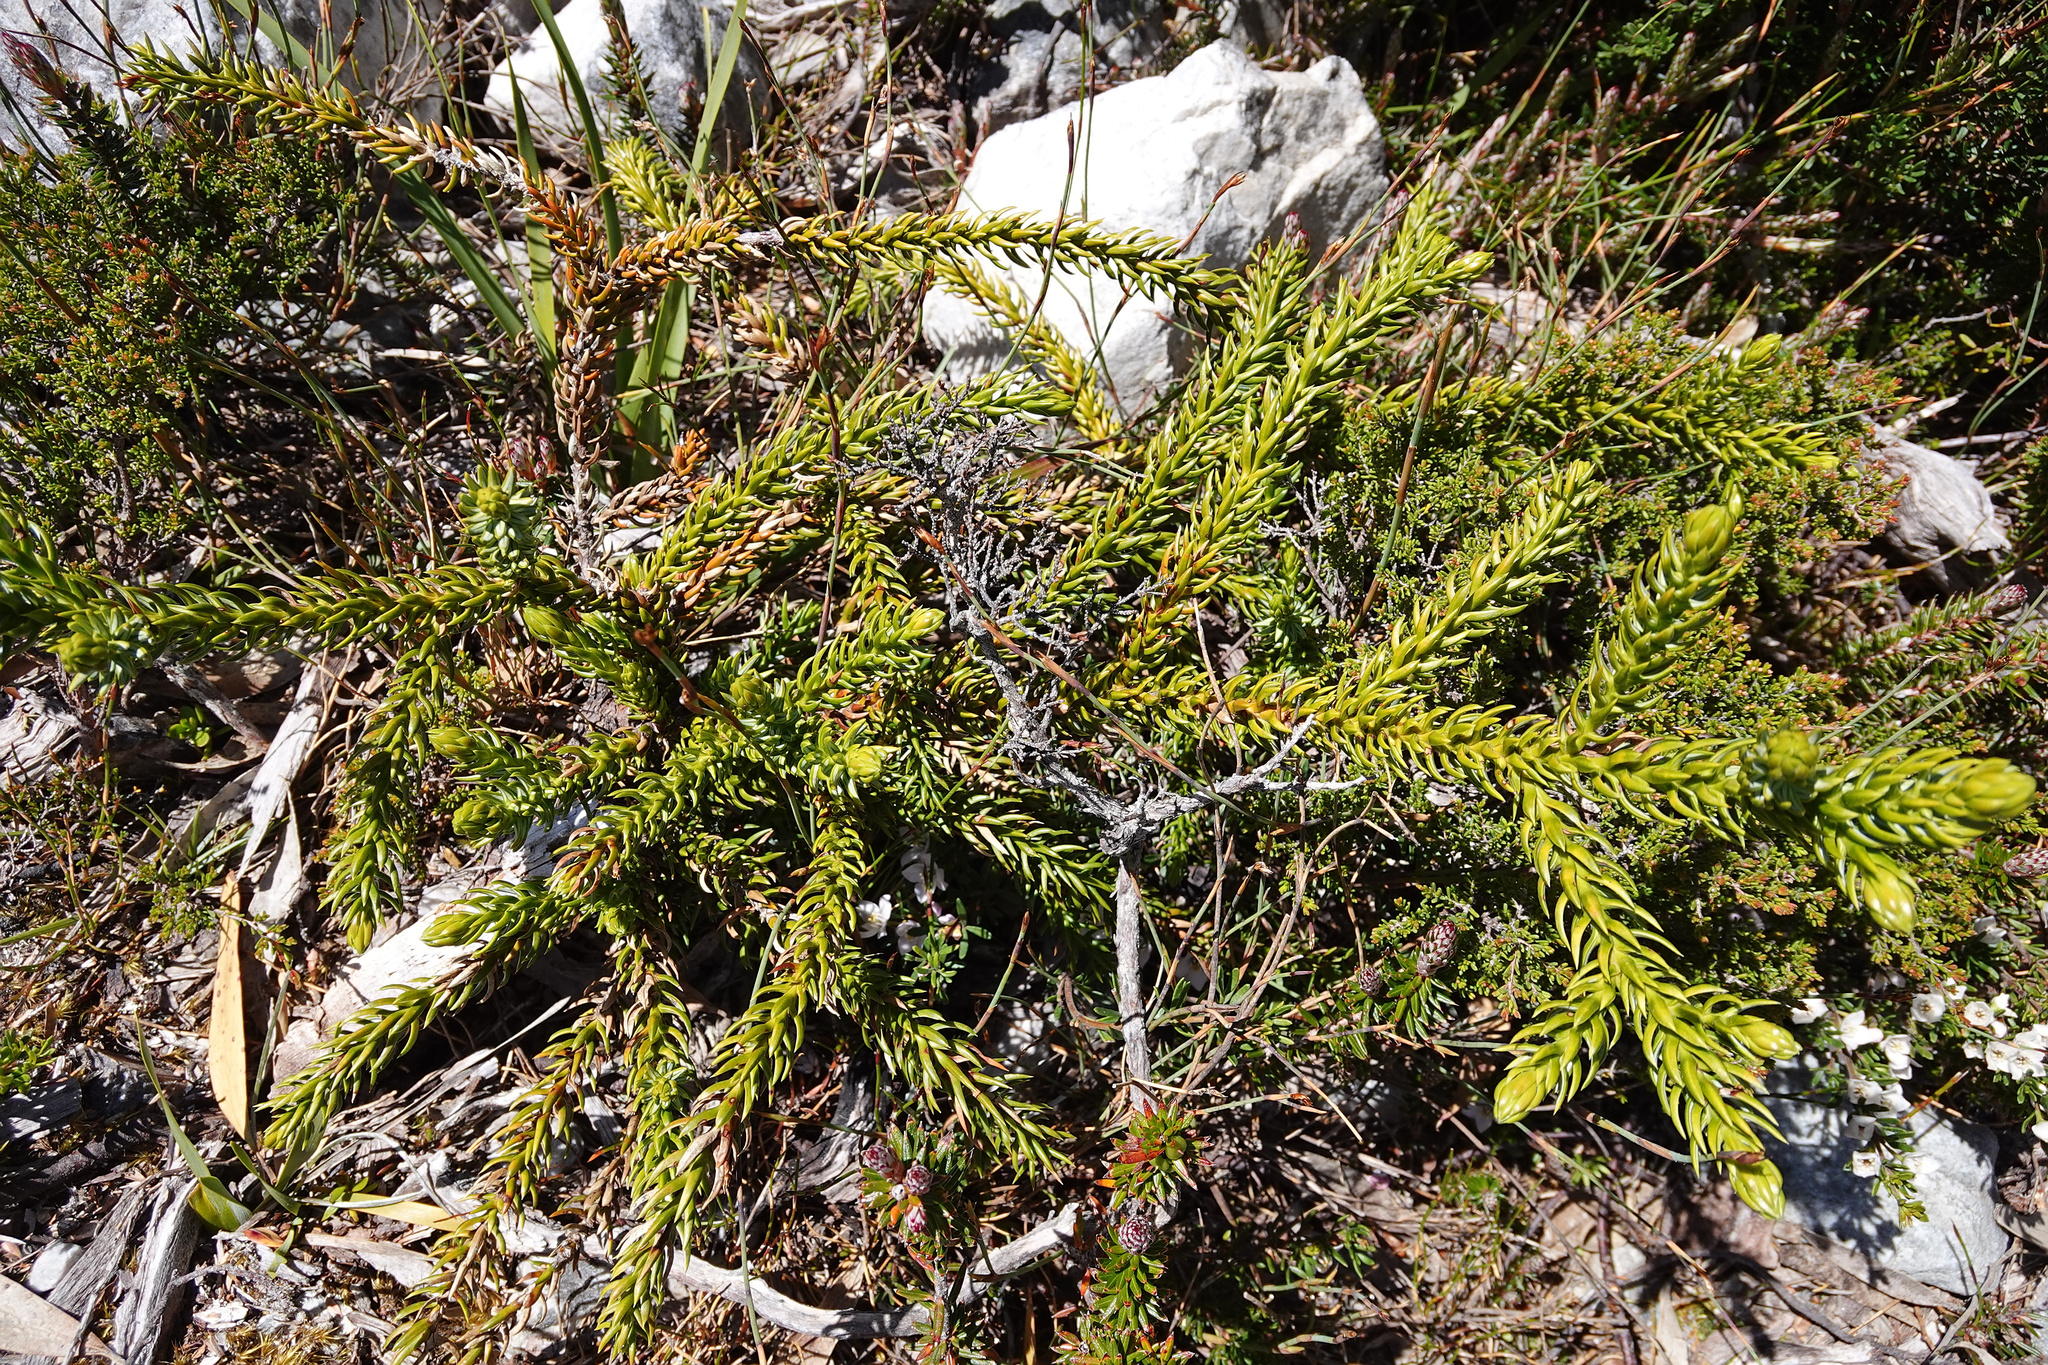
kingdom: Plantae
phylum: Tracheophyta
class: Pinopsida
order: Pinales
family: Cupressaceae
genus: Athrotaxis
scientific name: Athrotaxis selaginoides
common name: King william pine
